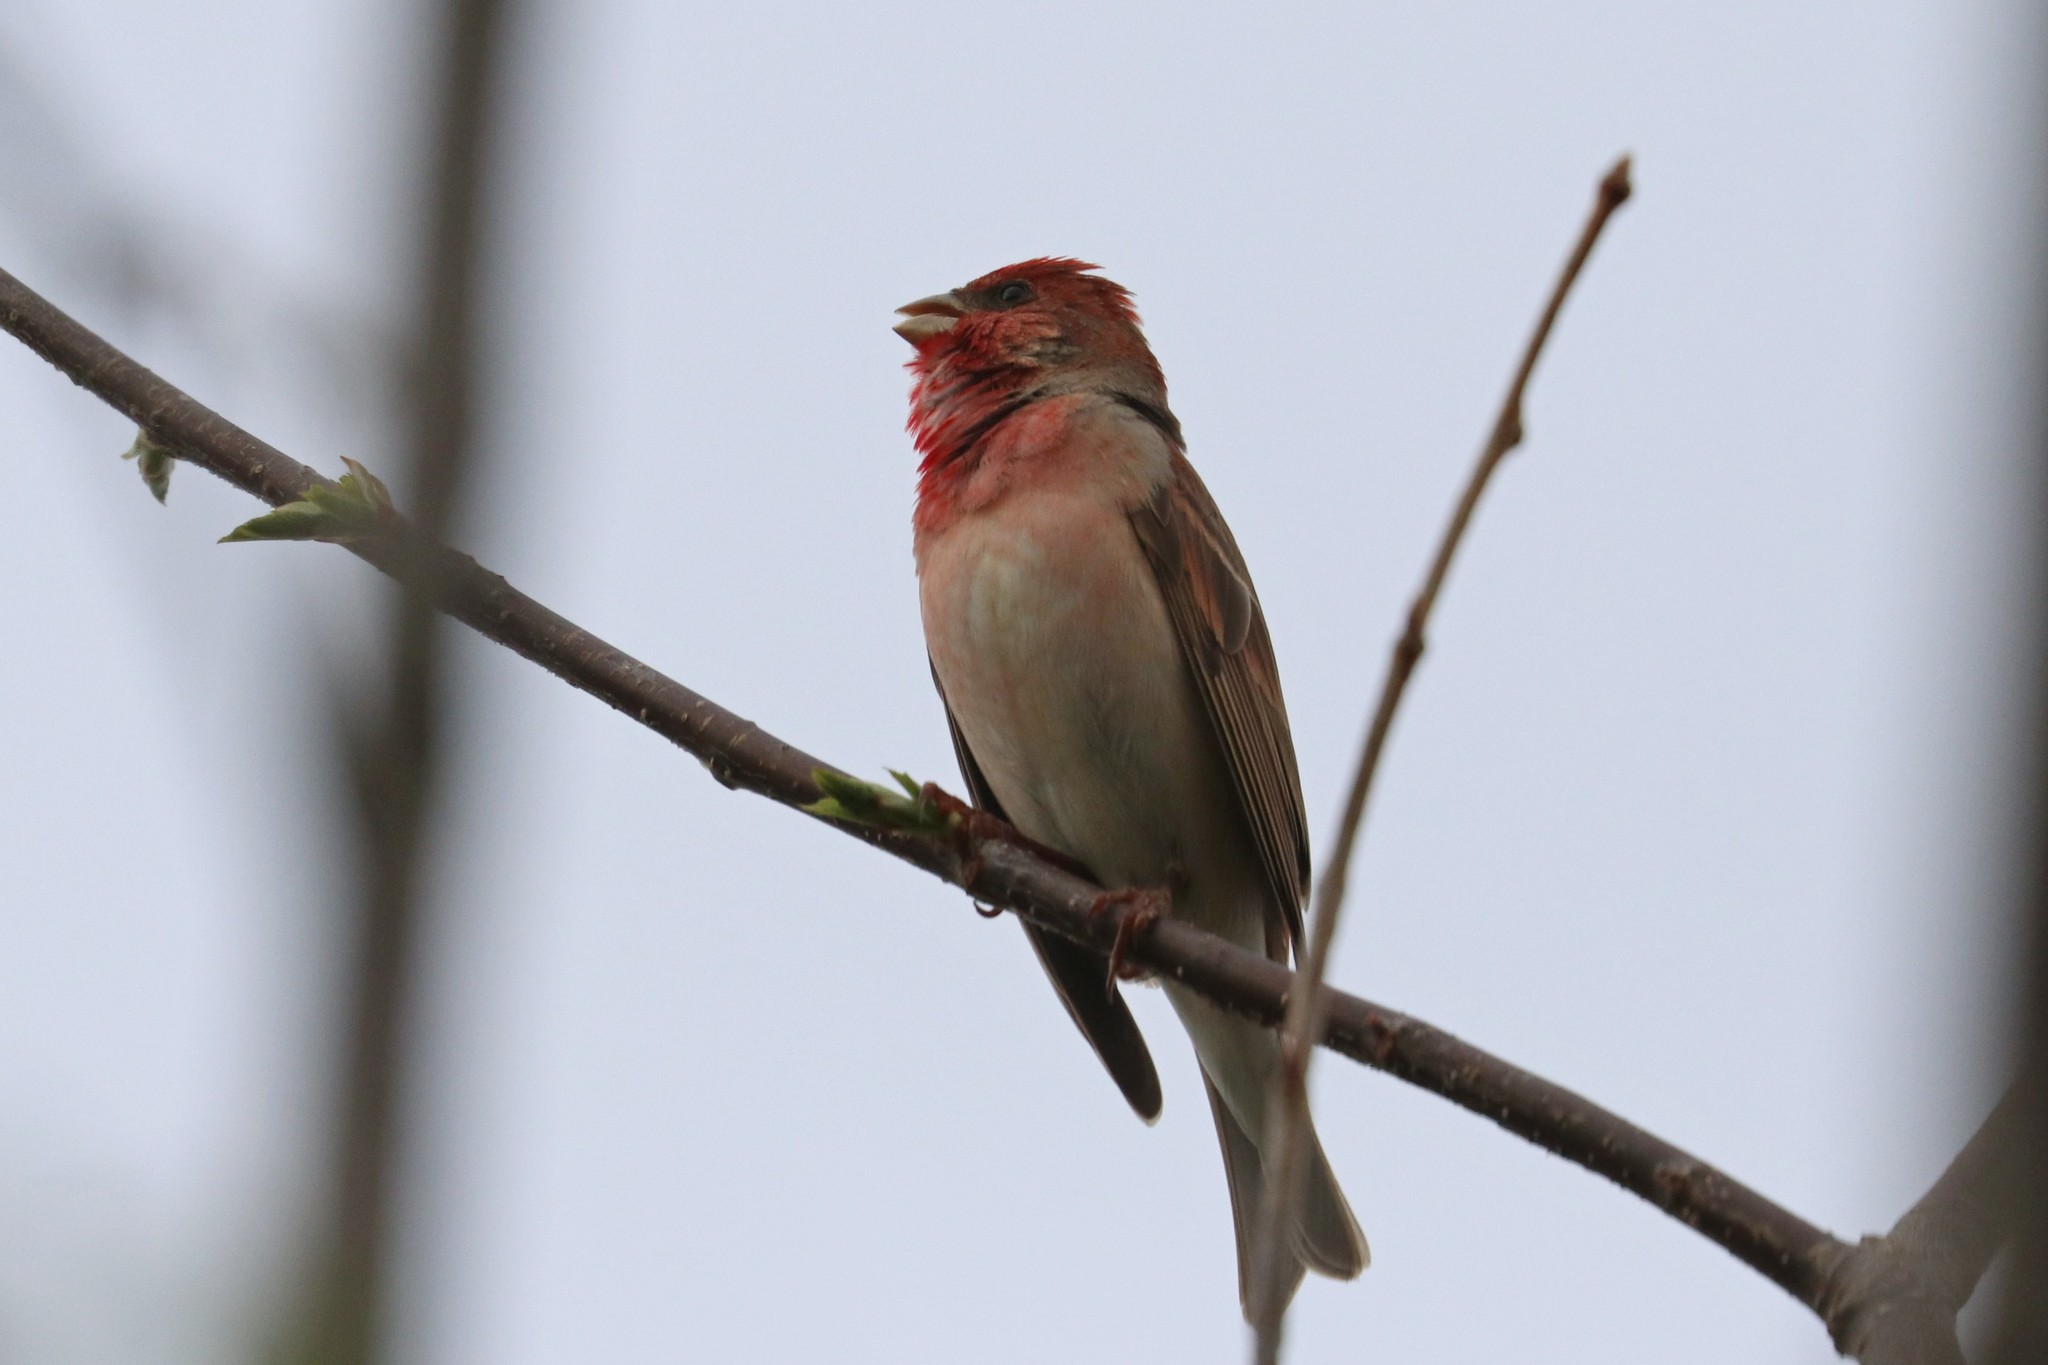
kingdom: Animalia
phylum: Chordata
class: Aves
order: Passeriformes
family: Fringillidae
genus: Carpodacus
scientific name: Carpodacus erythrinus
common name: Common rosefinch
